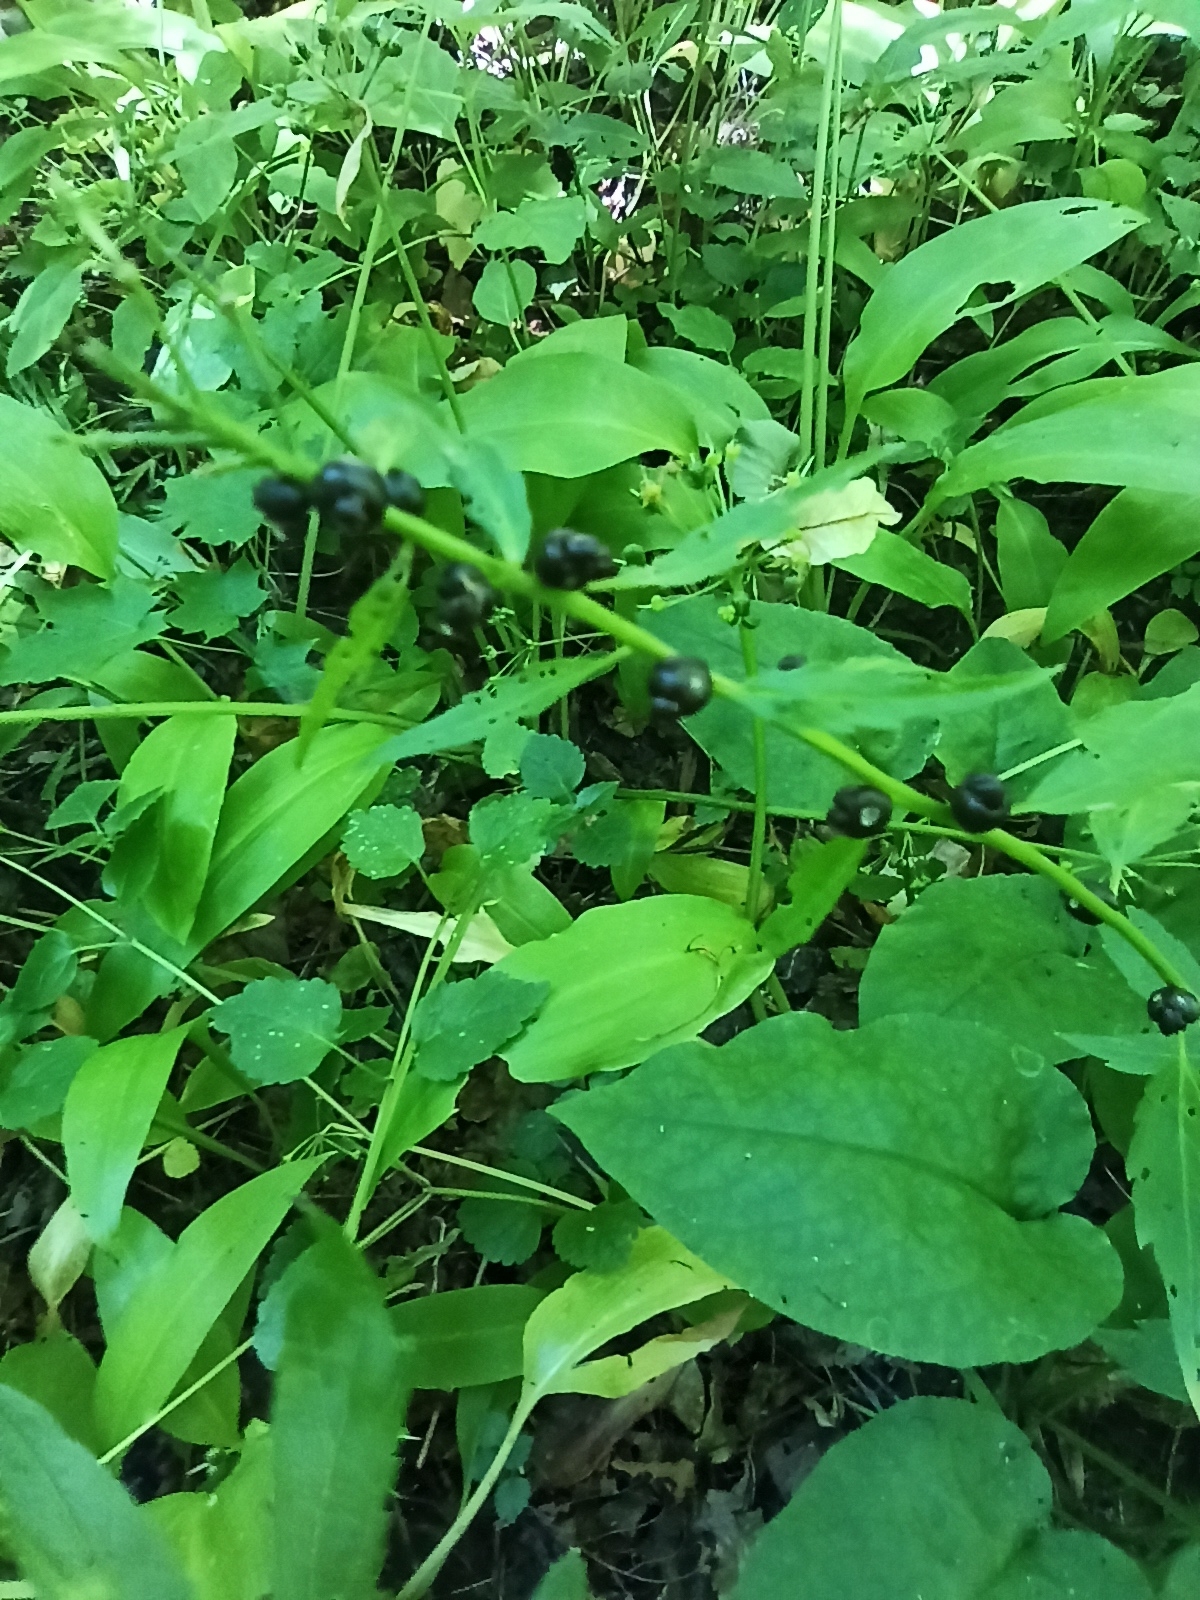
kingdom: Plantae
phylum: Tracheophyta
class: Magnoliopsida
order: Brassicales
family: Brassicaceae
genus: Cardamine
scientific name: Cardamine bulbifera
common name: Coralroot bittercress
